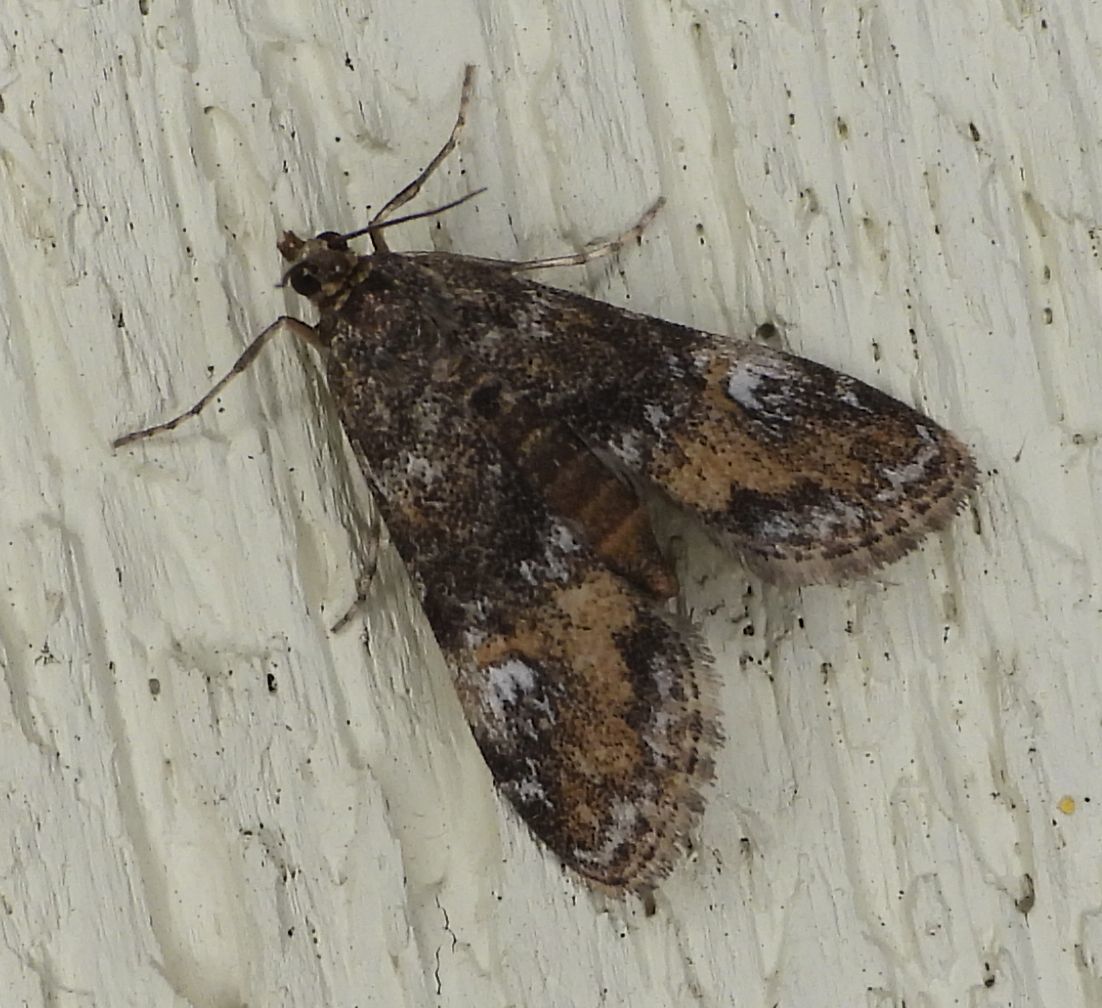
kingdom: Animalia
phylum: Arthropoda
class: Insecta
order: Lepidoptera
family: Crambidae
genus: Elophila
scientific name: Elophila obliteralis
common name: Waterlily leafcutter moth
